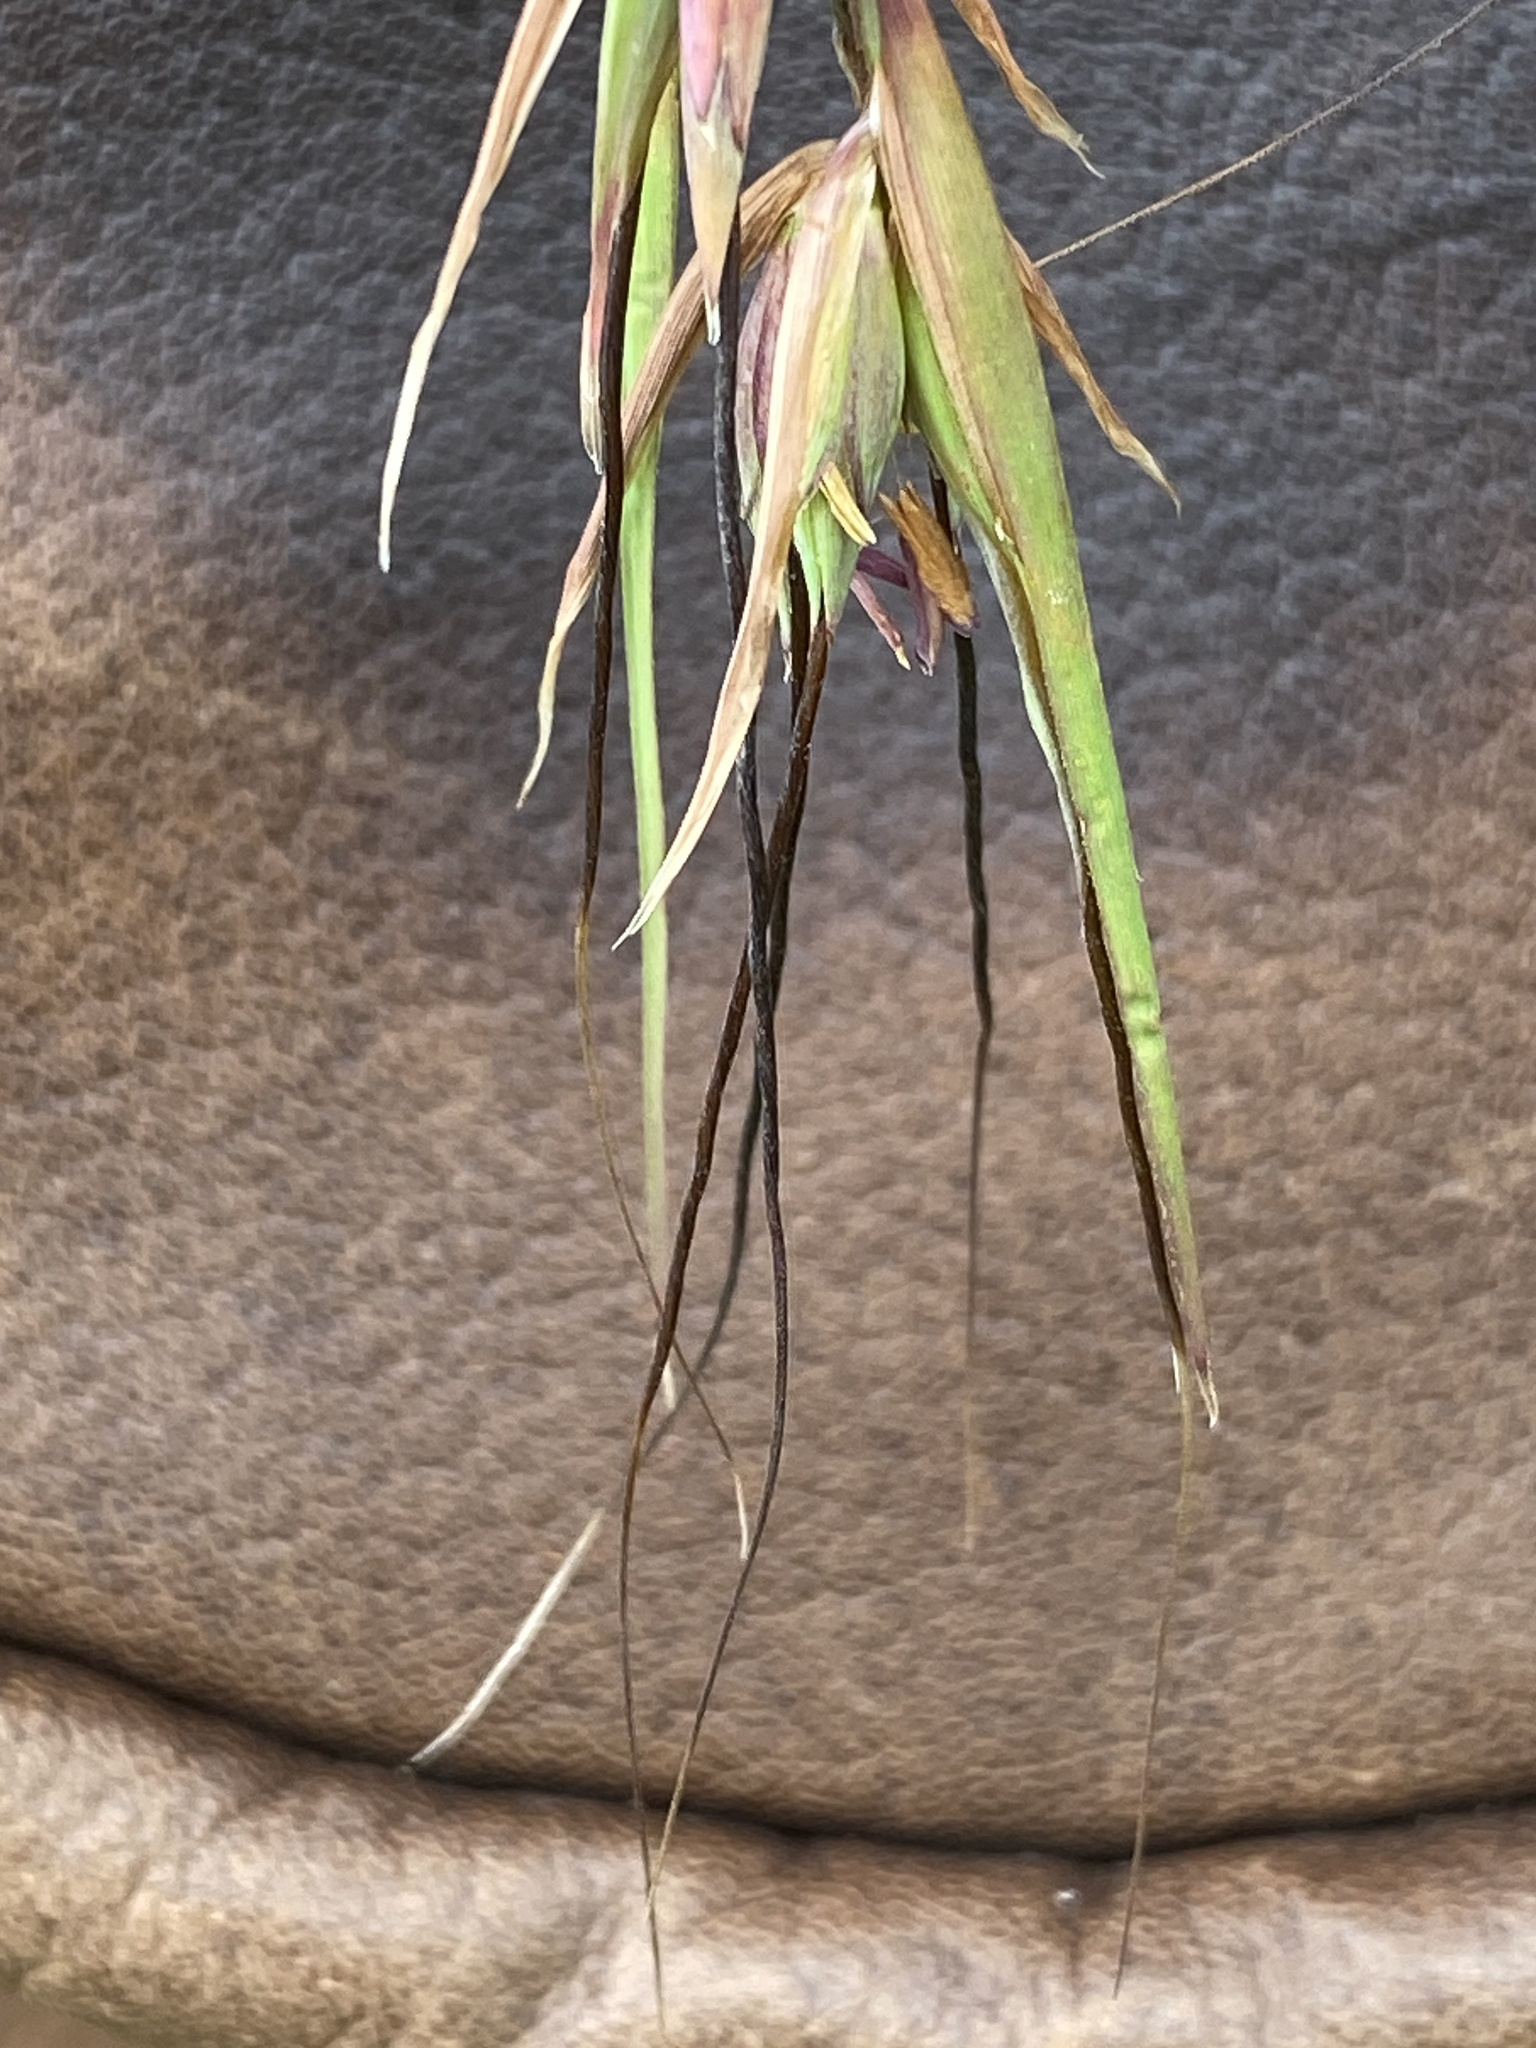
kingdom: Plantae
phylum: Tracheophyta
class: Liliopsida
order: Poales
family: Poaceae
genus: Themeda
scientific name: Themeda triandra
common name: Kangaroo grass
